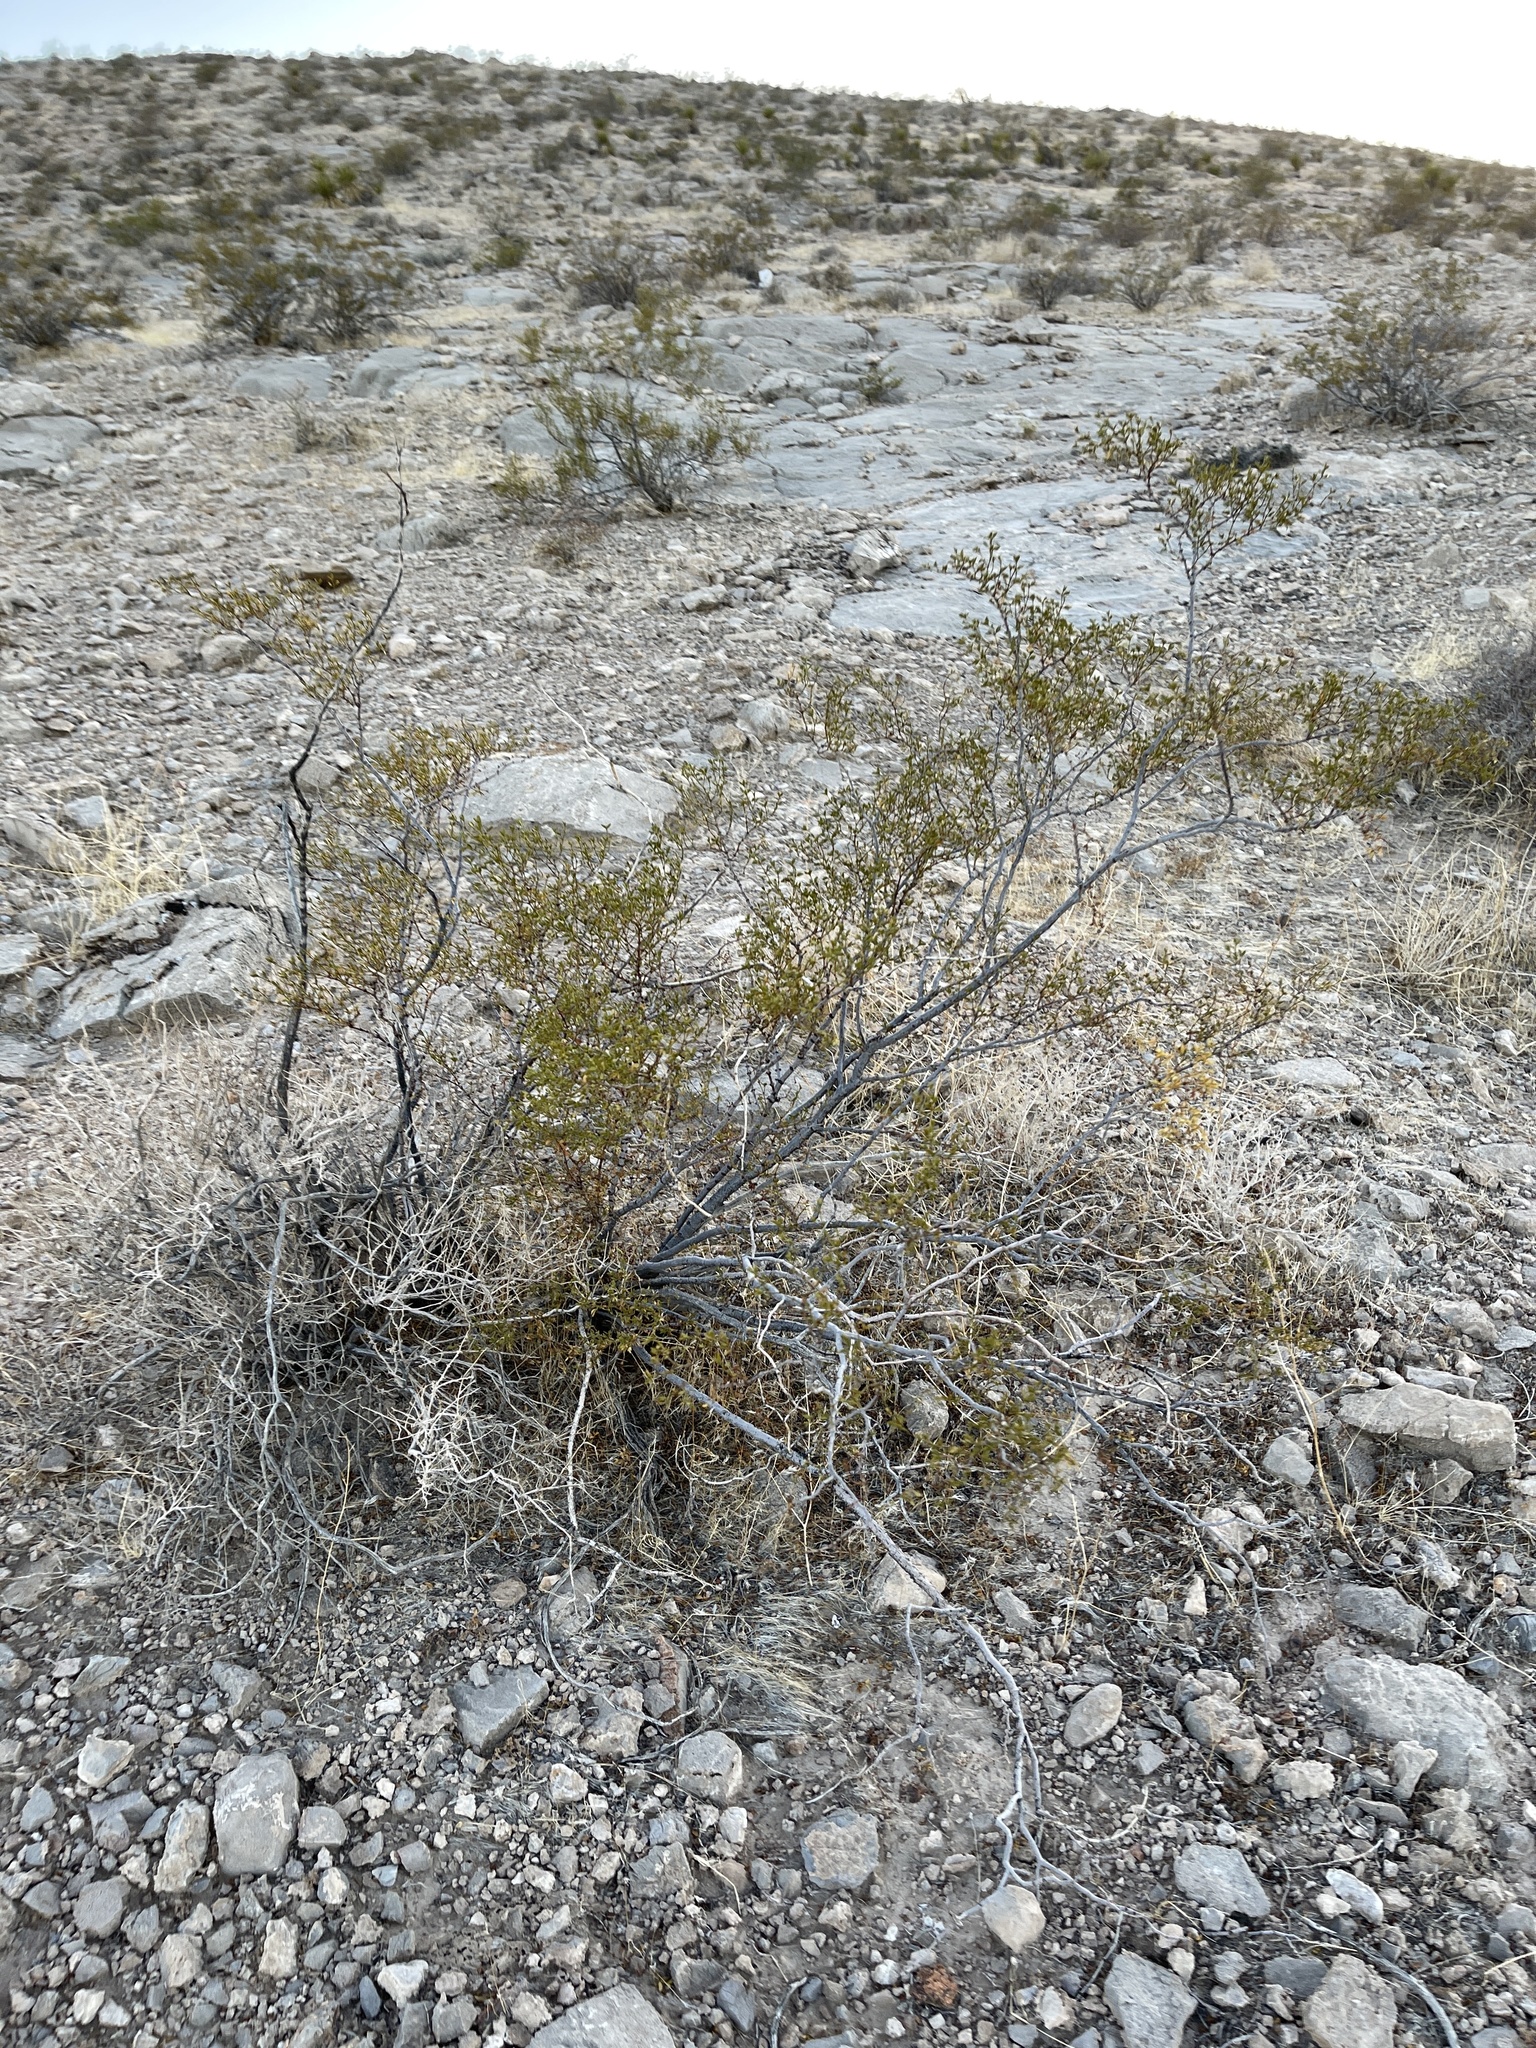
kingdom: Plantae
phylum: Tracheophyta
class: Magnoliopsida
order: Zygophyllales
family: Zygophyllaceae
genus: Larrea
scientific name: Larrea tridentata
